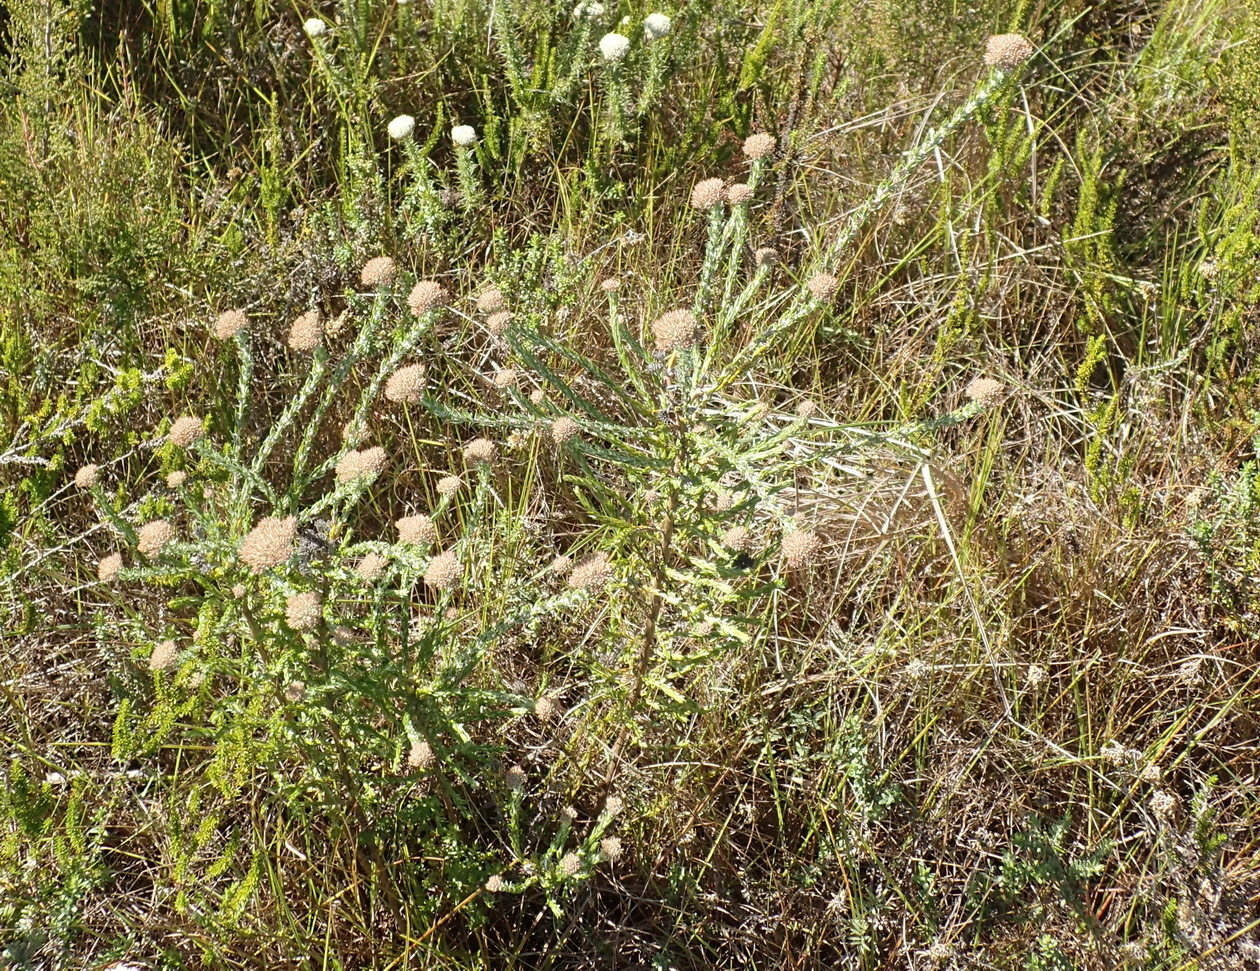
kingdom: Plantae
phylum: Tracheophyta
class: Magnoliopsida
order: Asterales
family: Asteraceae
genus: Metalasia
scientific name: Metalasia pungens
